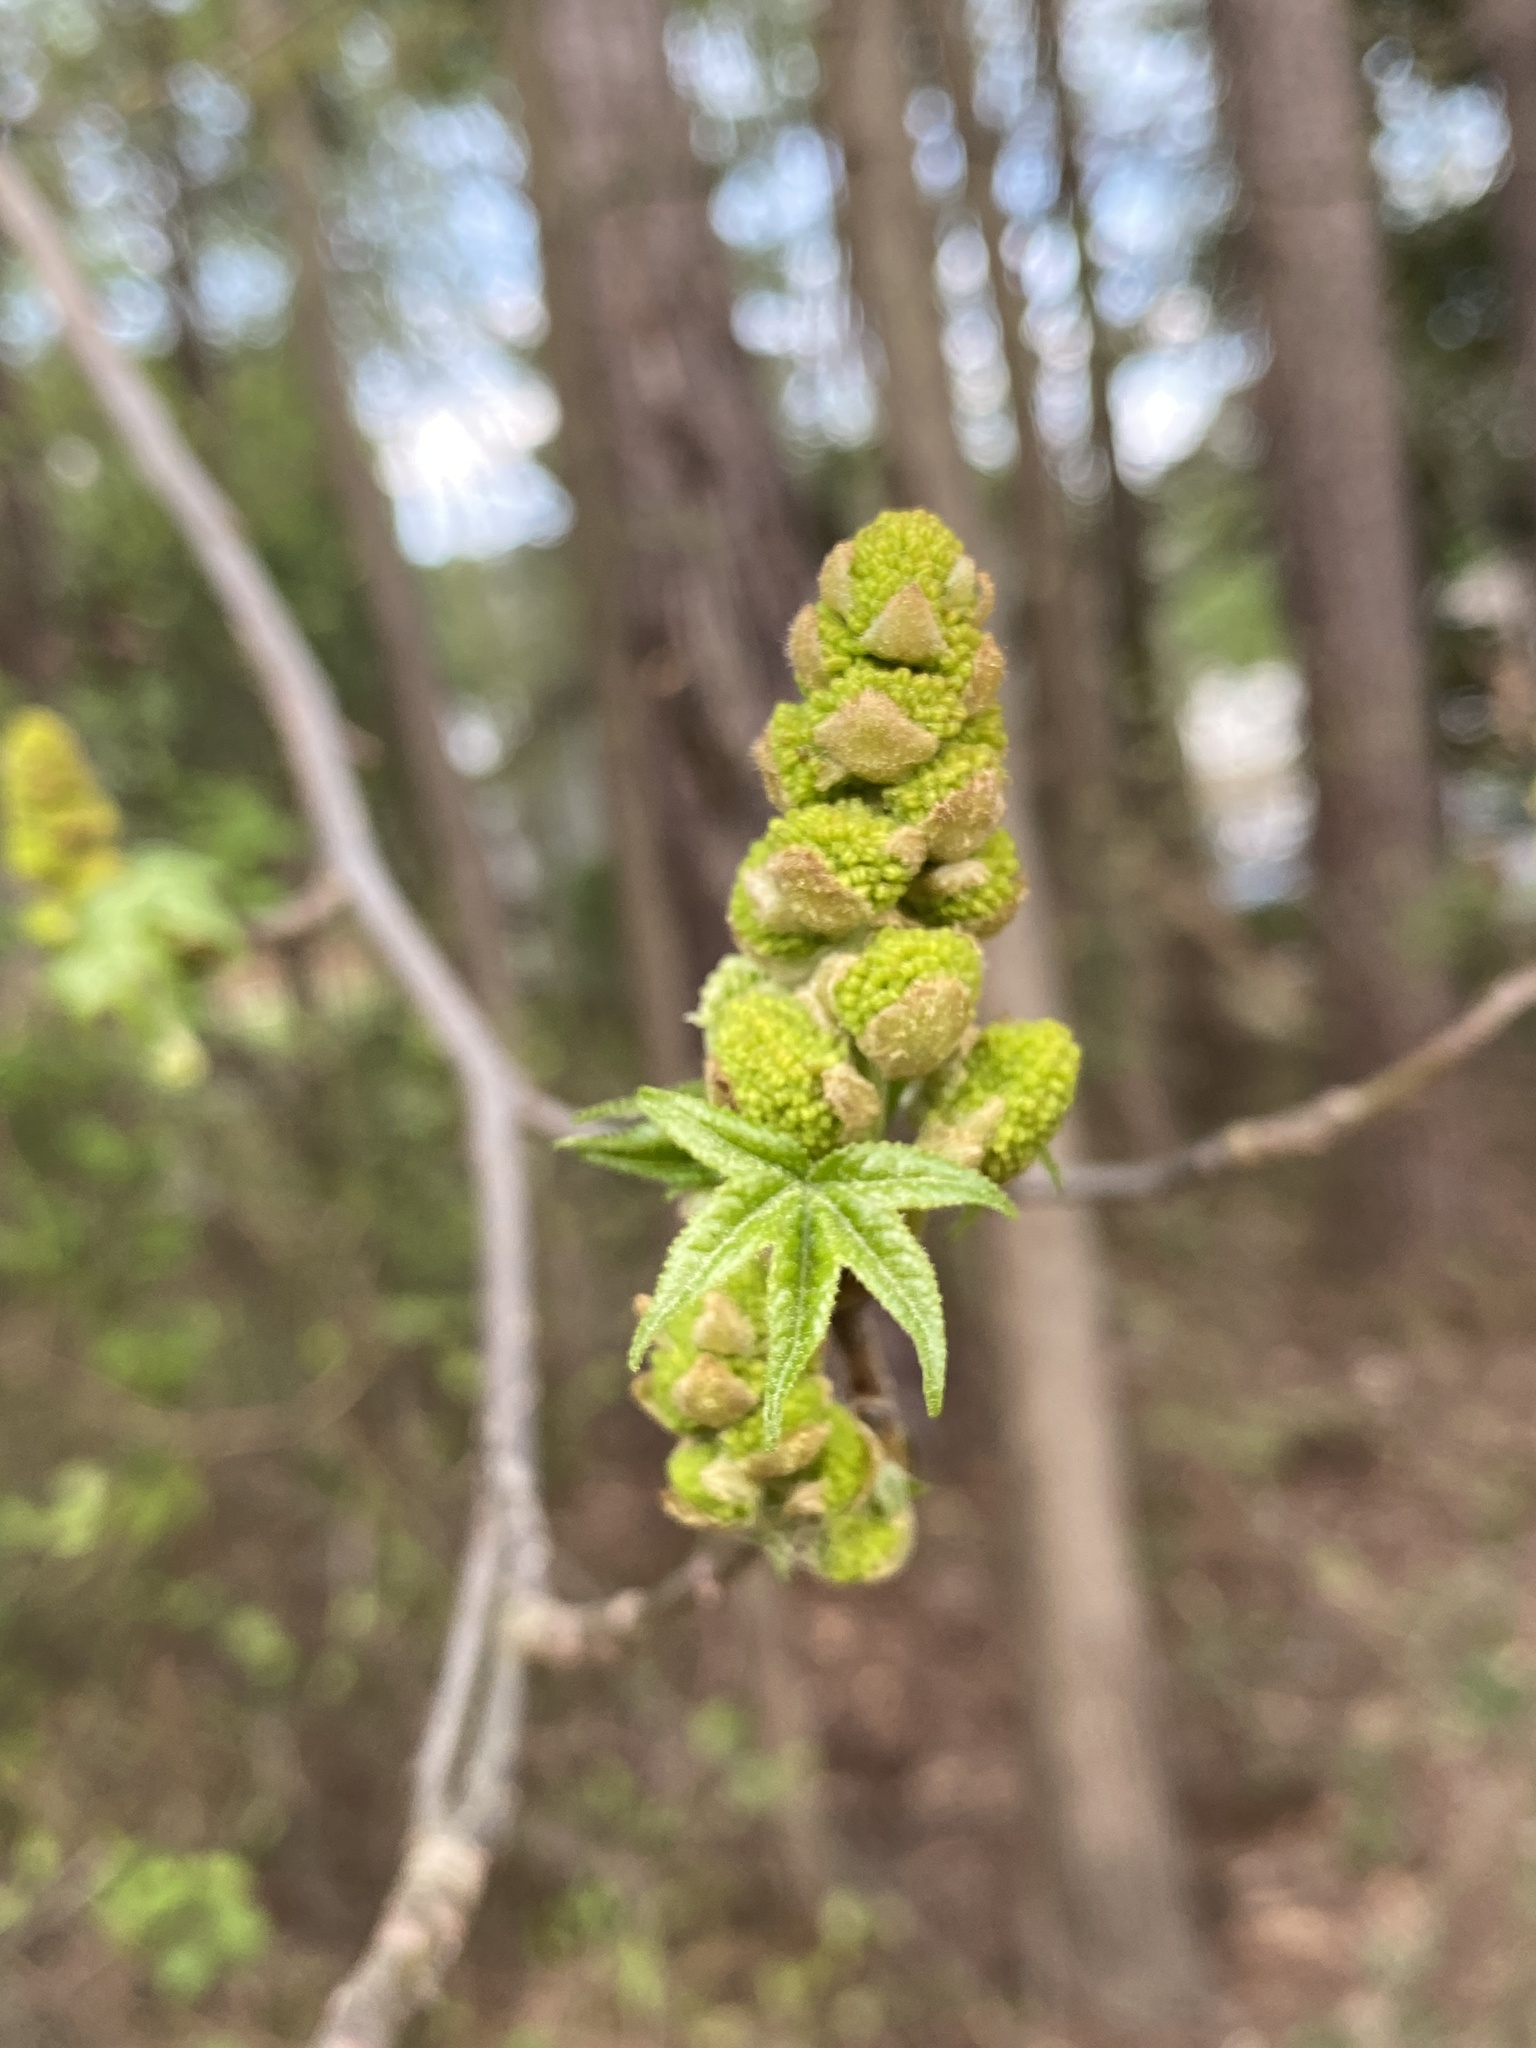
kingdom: Plantae
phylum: Tracheophyta
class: Magnoliopsida
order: Saxifragales
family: Altingiaceae
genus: Liquidambar
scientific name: Liquidambar styraciflua
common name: Sweet gum
